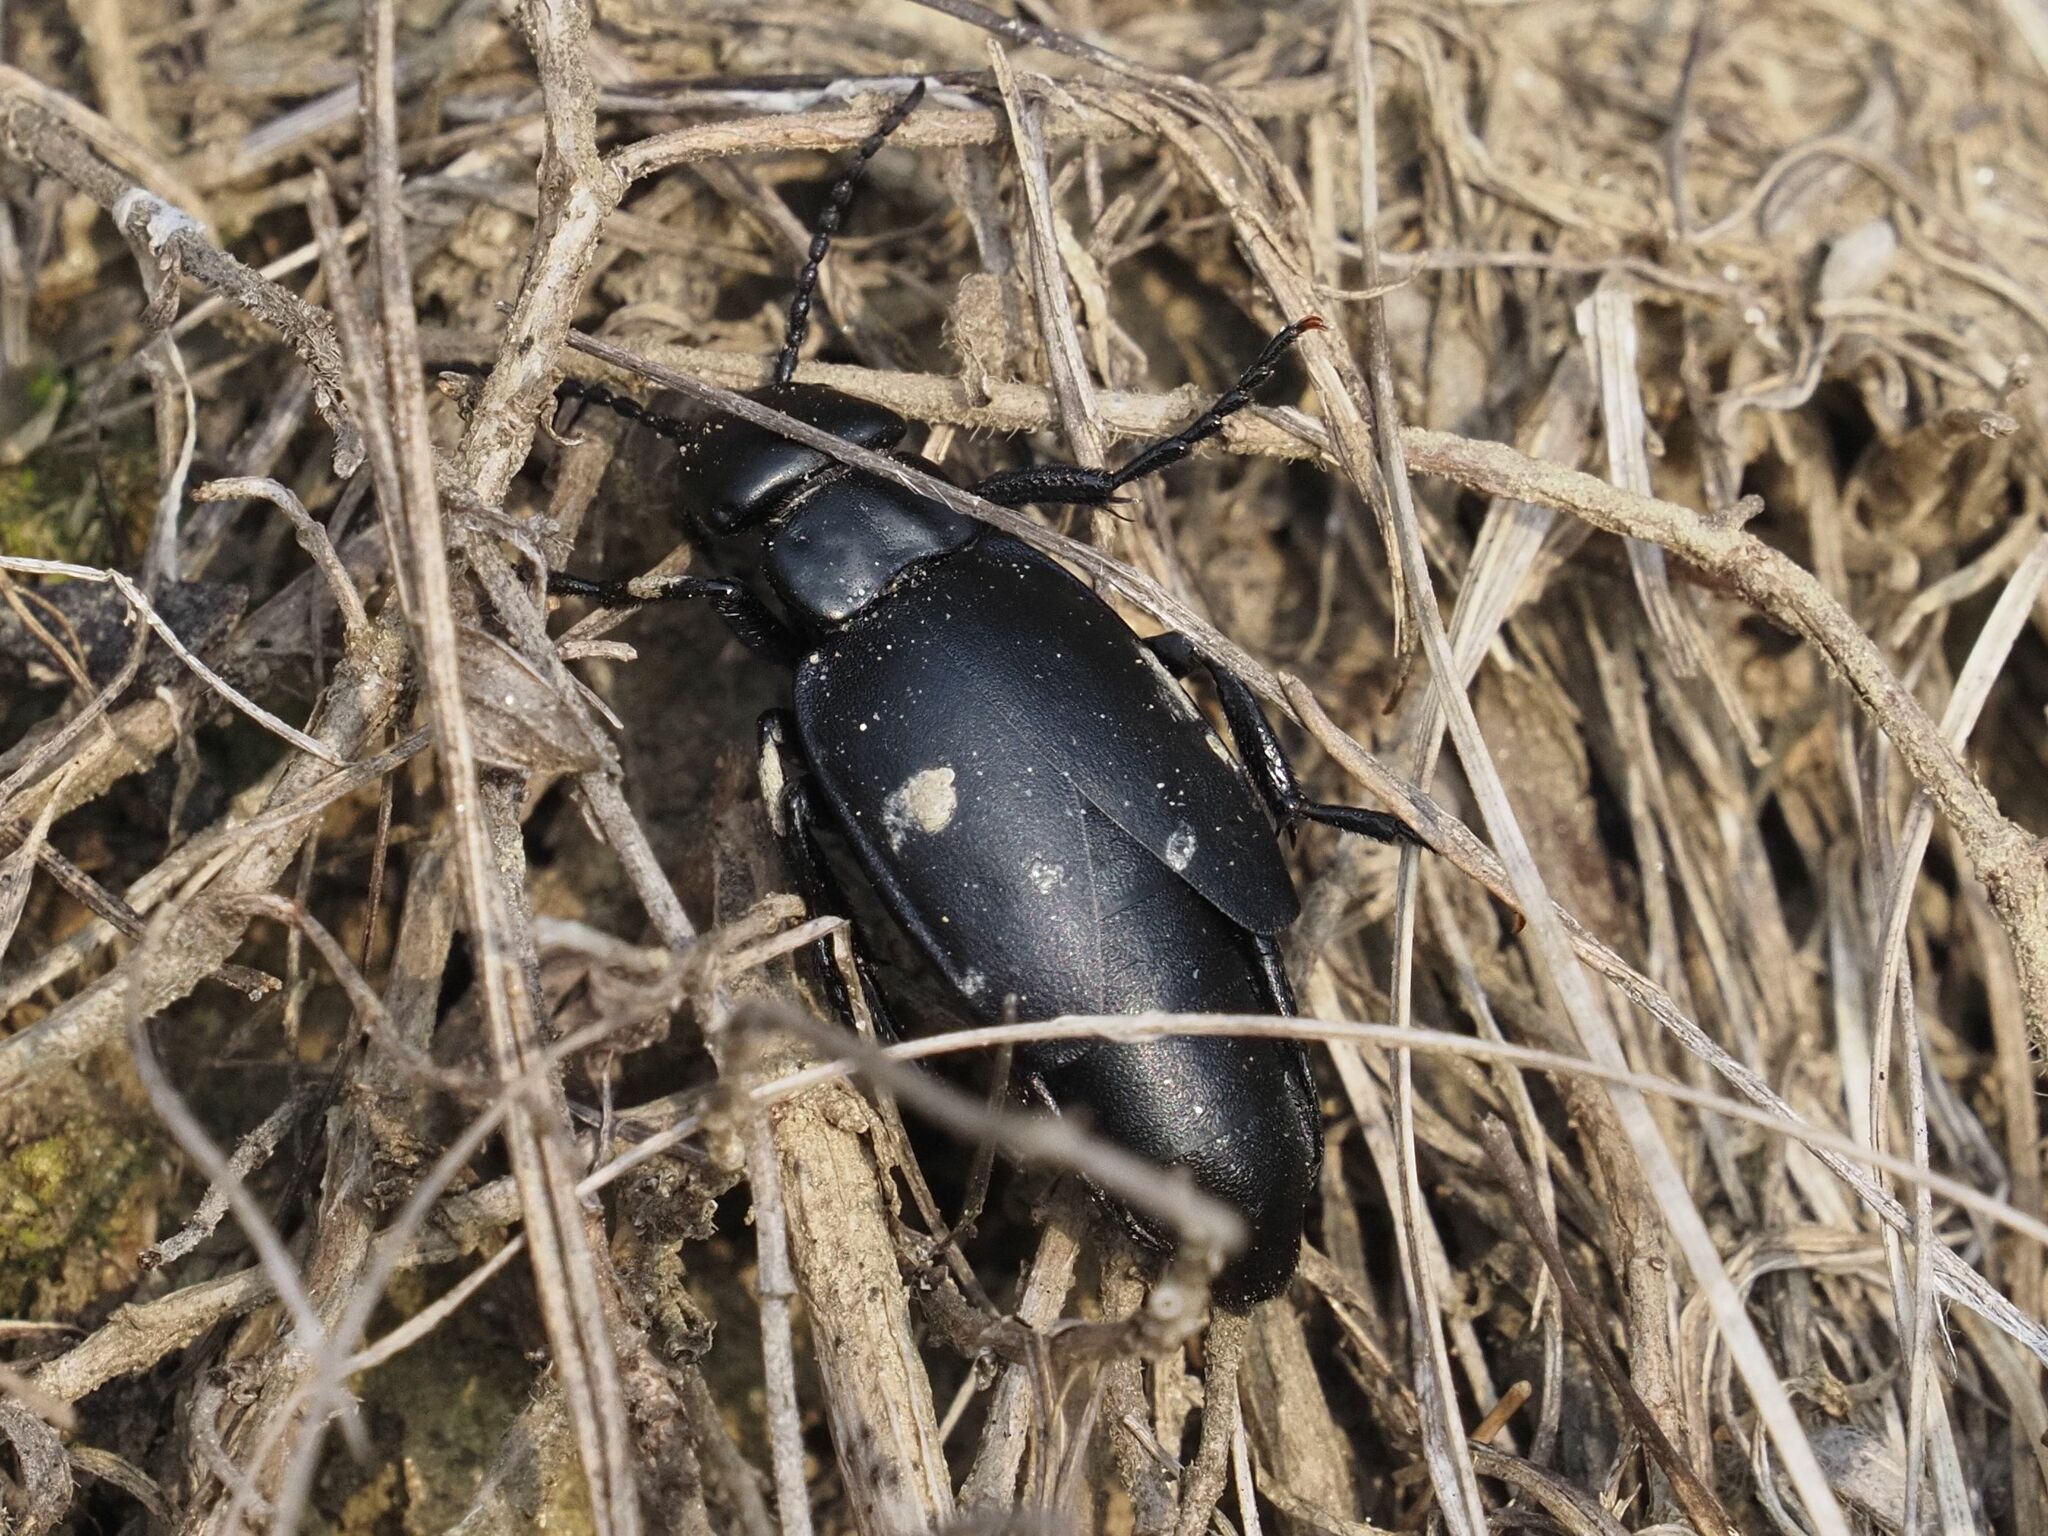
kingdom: Animalia
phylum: Arthropoda
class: Insecta
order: Coleoptera
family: Meloidae
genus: Meloe
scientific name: Meloe uralensis
